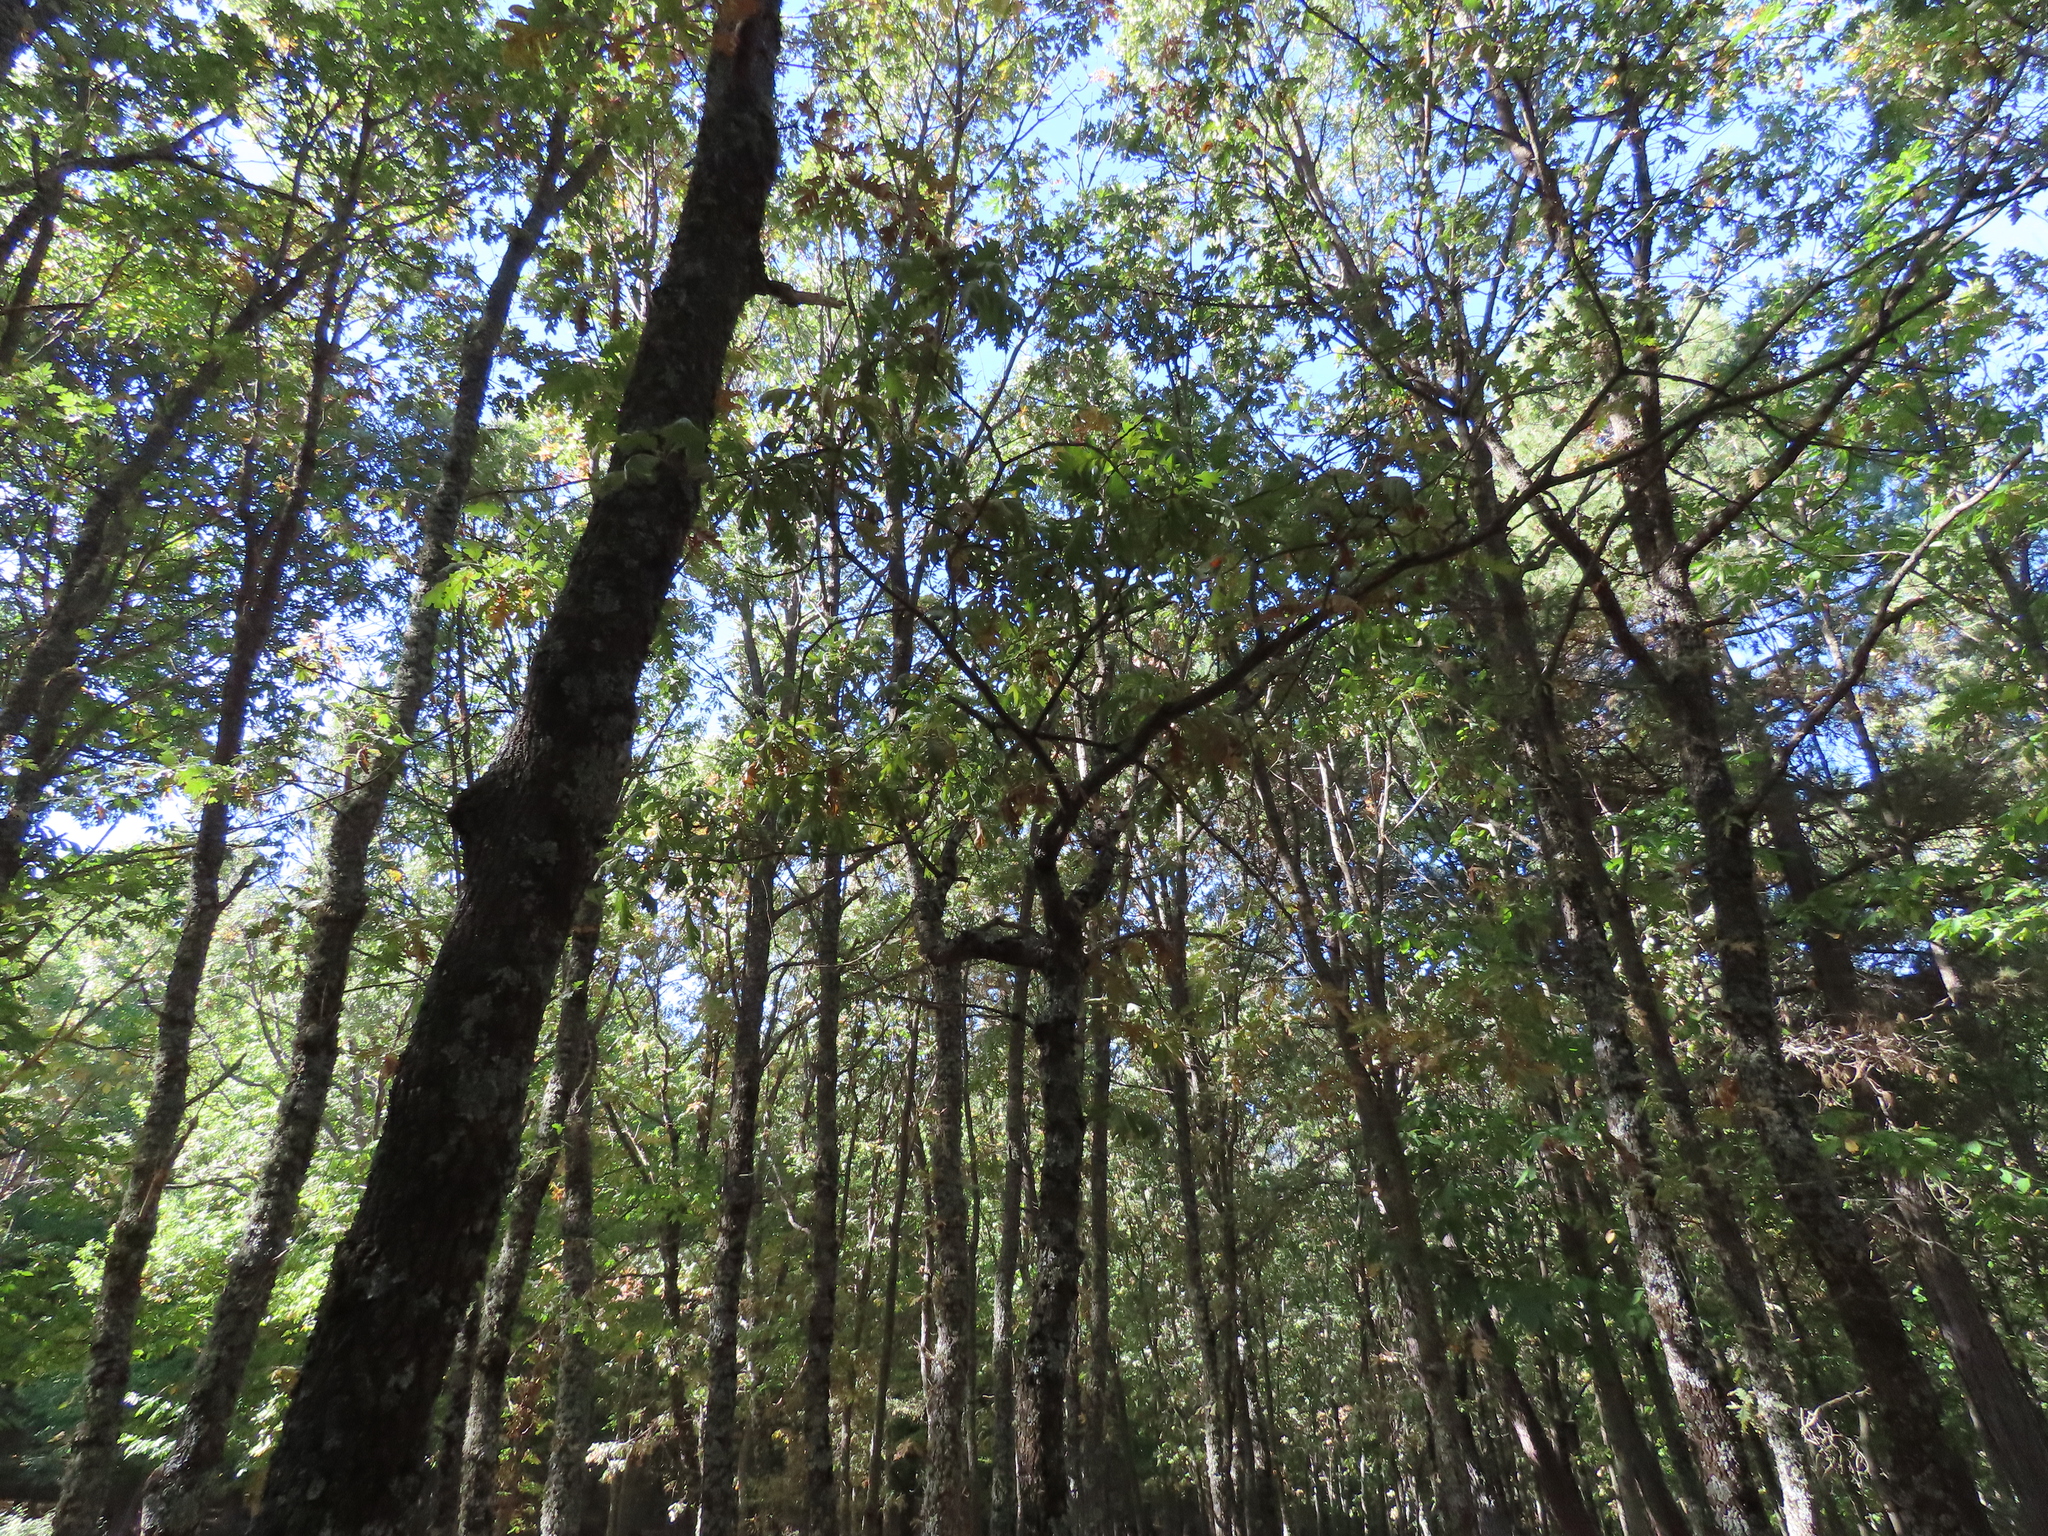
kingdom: Plantae
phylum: Tracheophyta
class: Magnoliopsida
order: Fagales
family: Fagaceae
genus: Quercus
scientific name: Quercus pyrenaica
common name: Pyrenean oak
